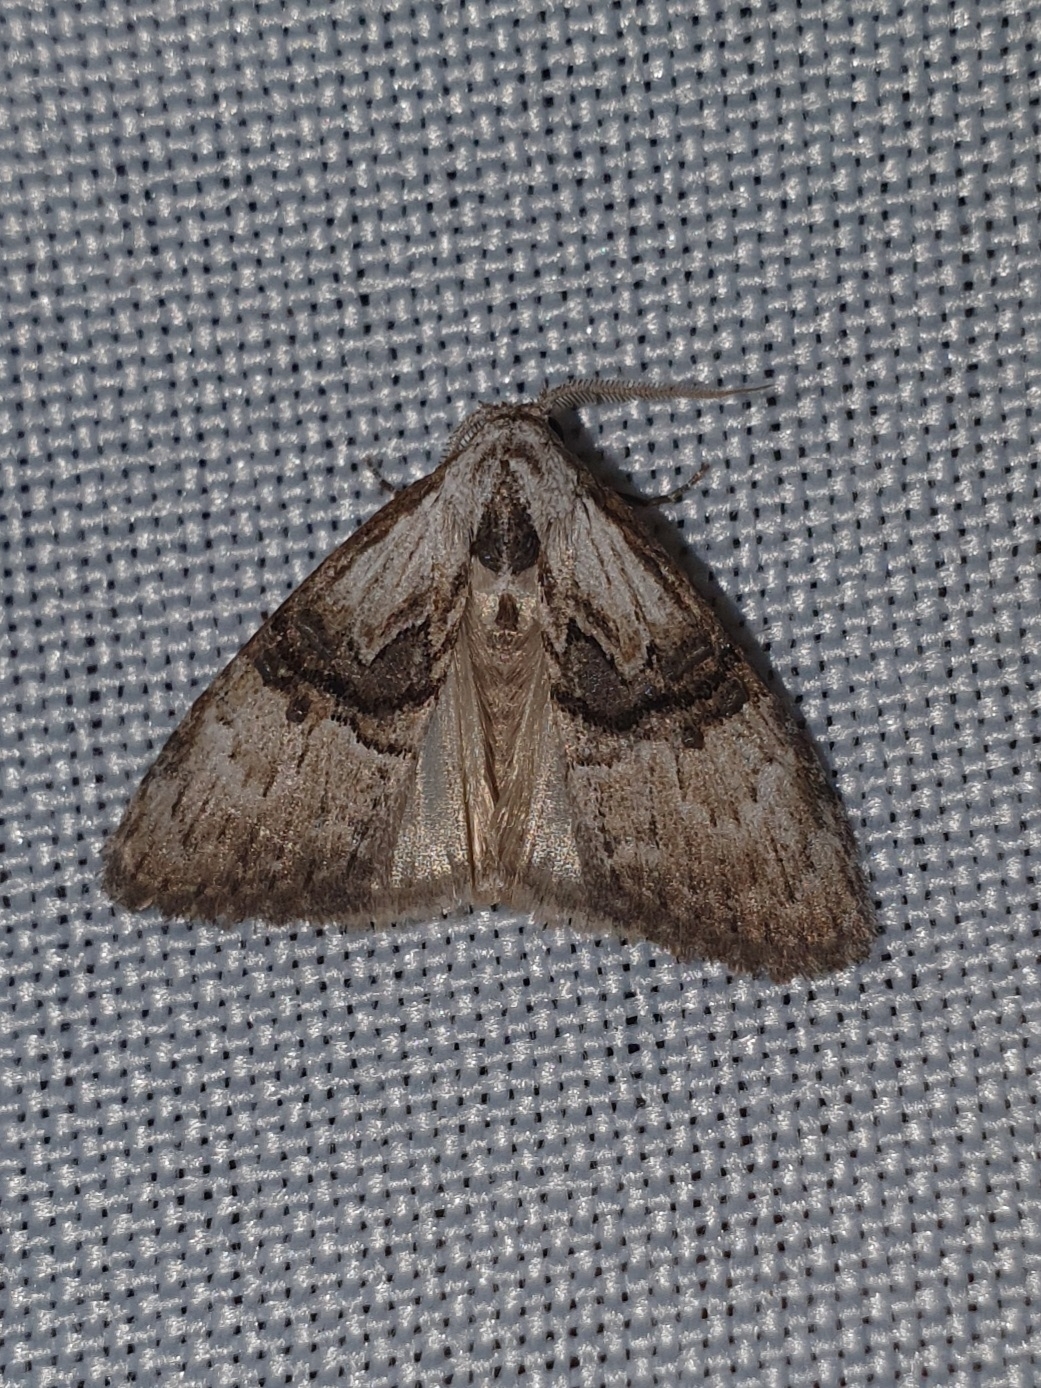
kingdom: Animalia
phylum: Arthropoda
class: Insecta
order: Lepidoptera
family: Nolidae
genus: Meganola
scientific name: Meganola togatulalis
